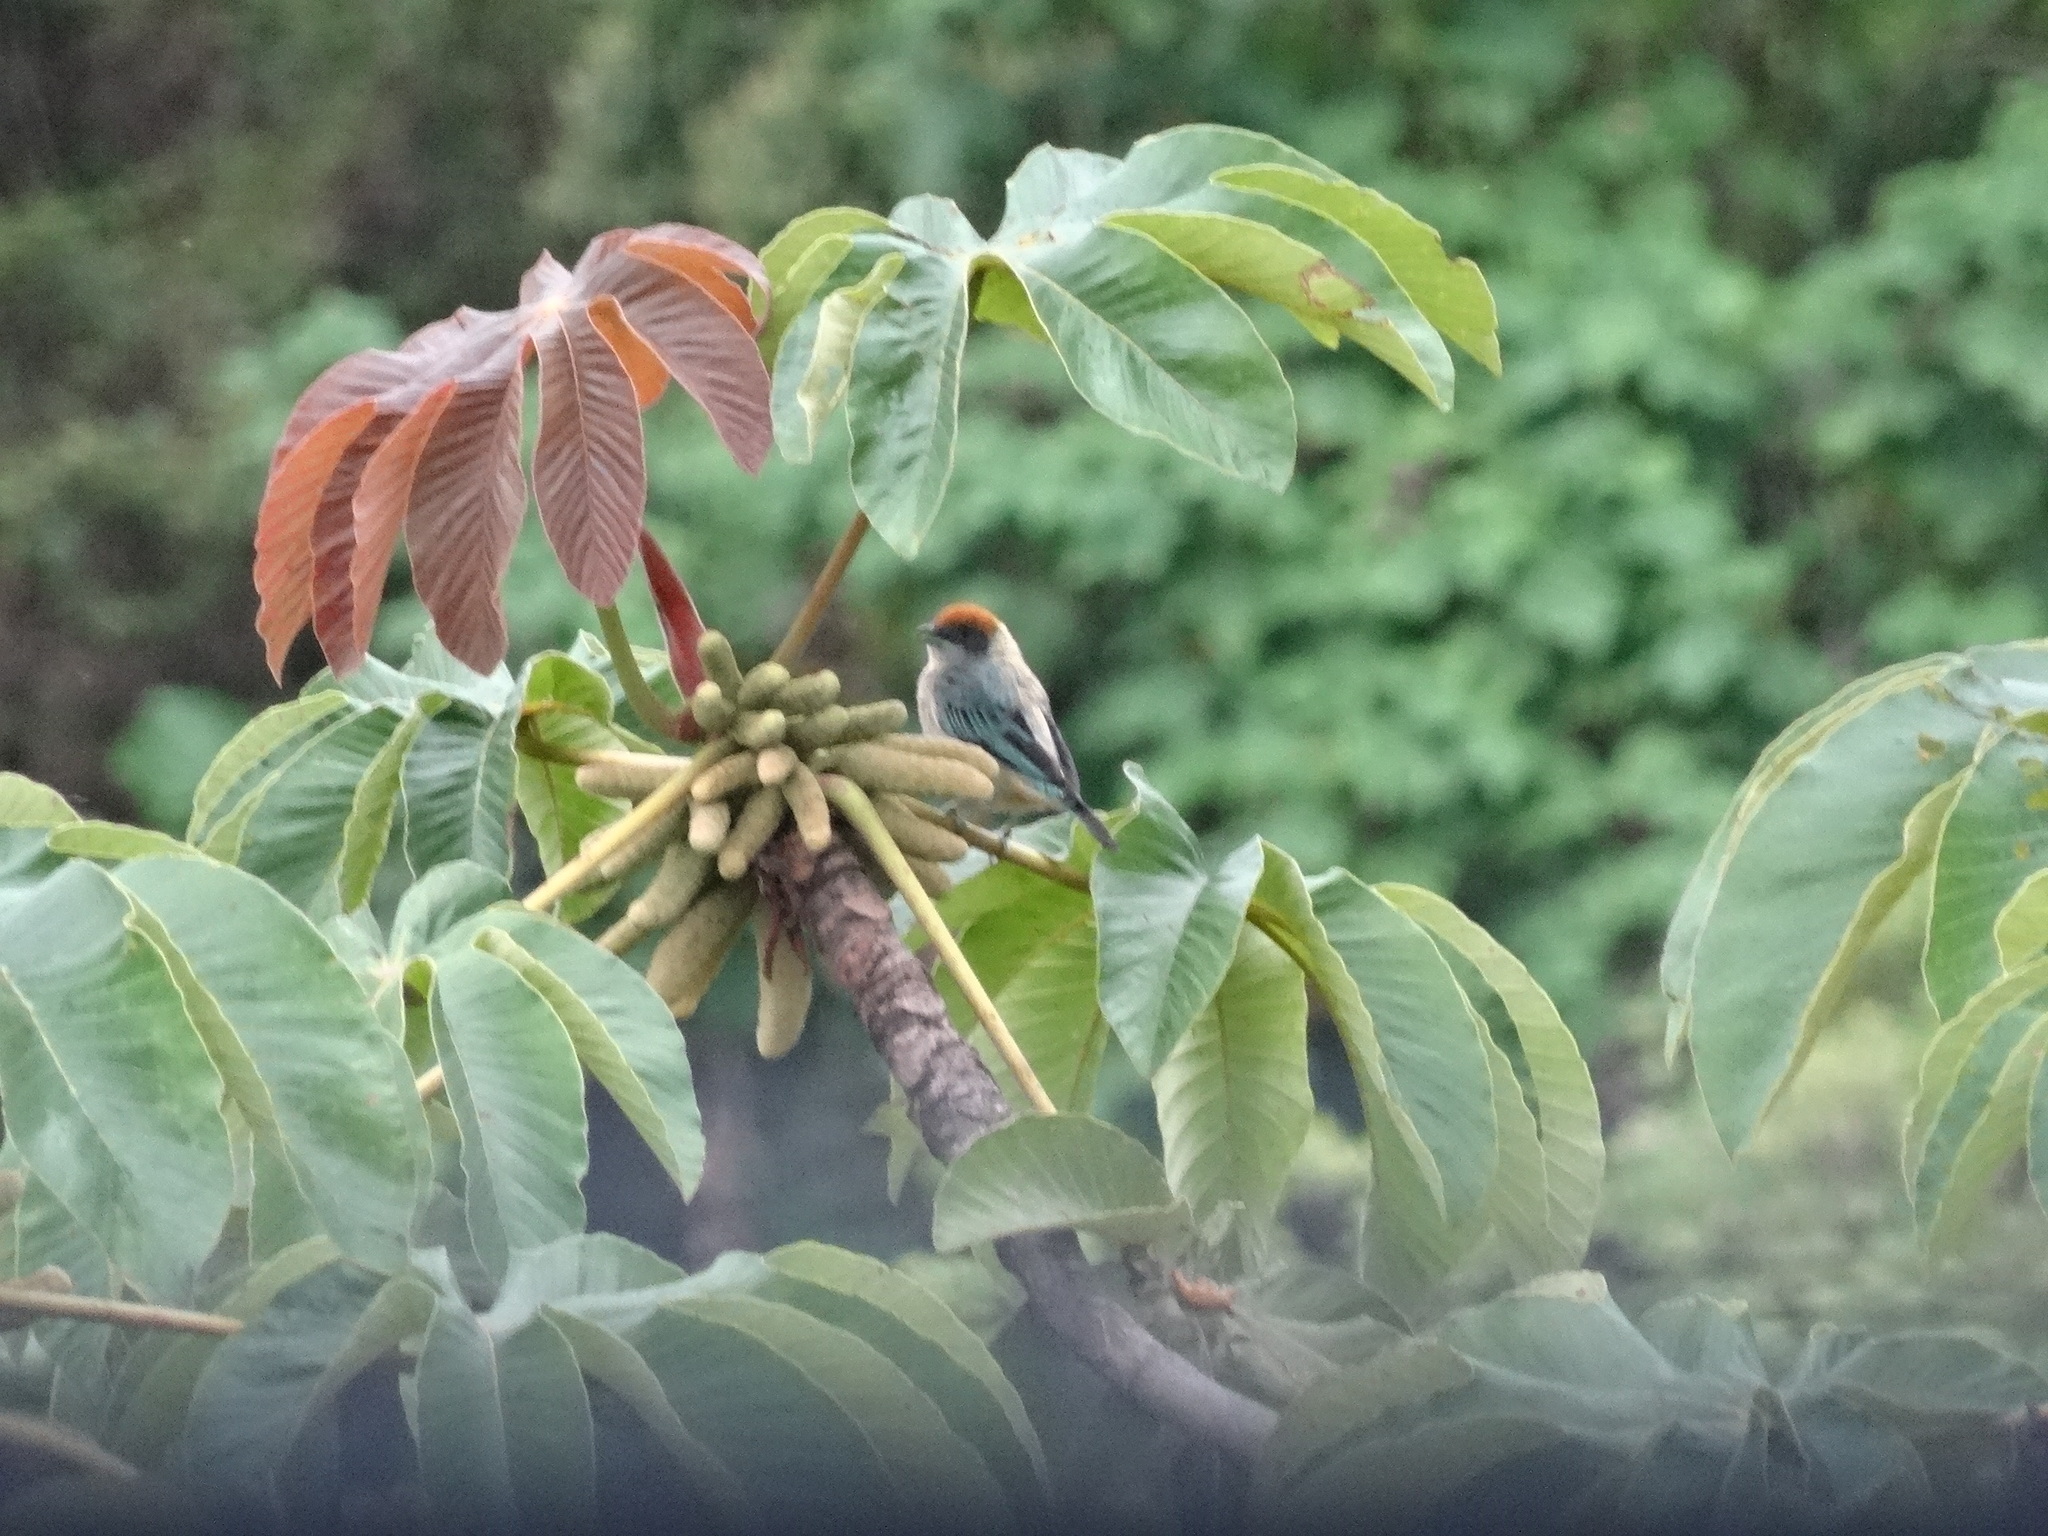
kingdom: Animalia
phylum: Chordata
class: Aves
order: Passeriformes
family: Thraupidae
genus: Stilpnia
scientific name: Stilpnia vitriolina
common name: Scrub tanager
